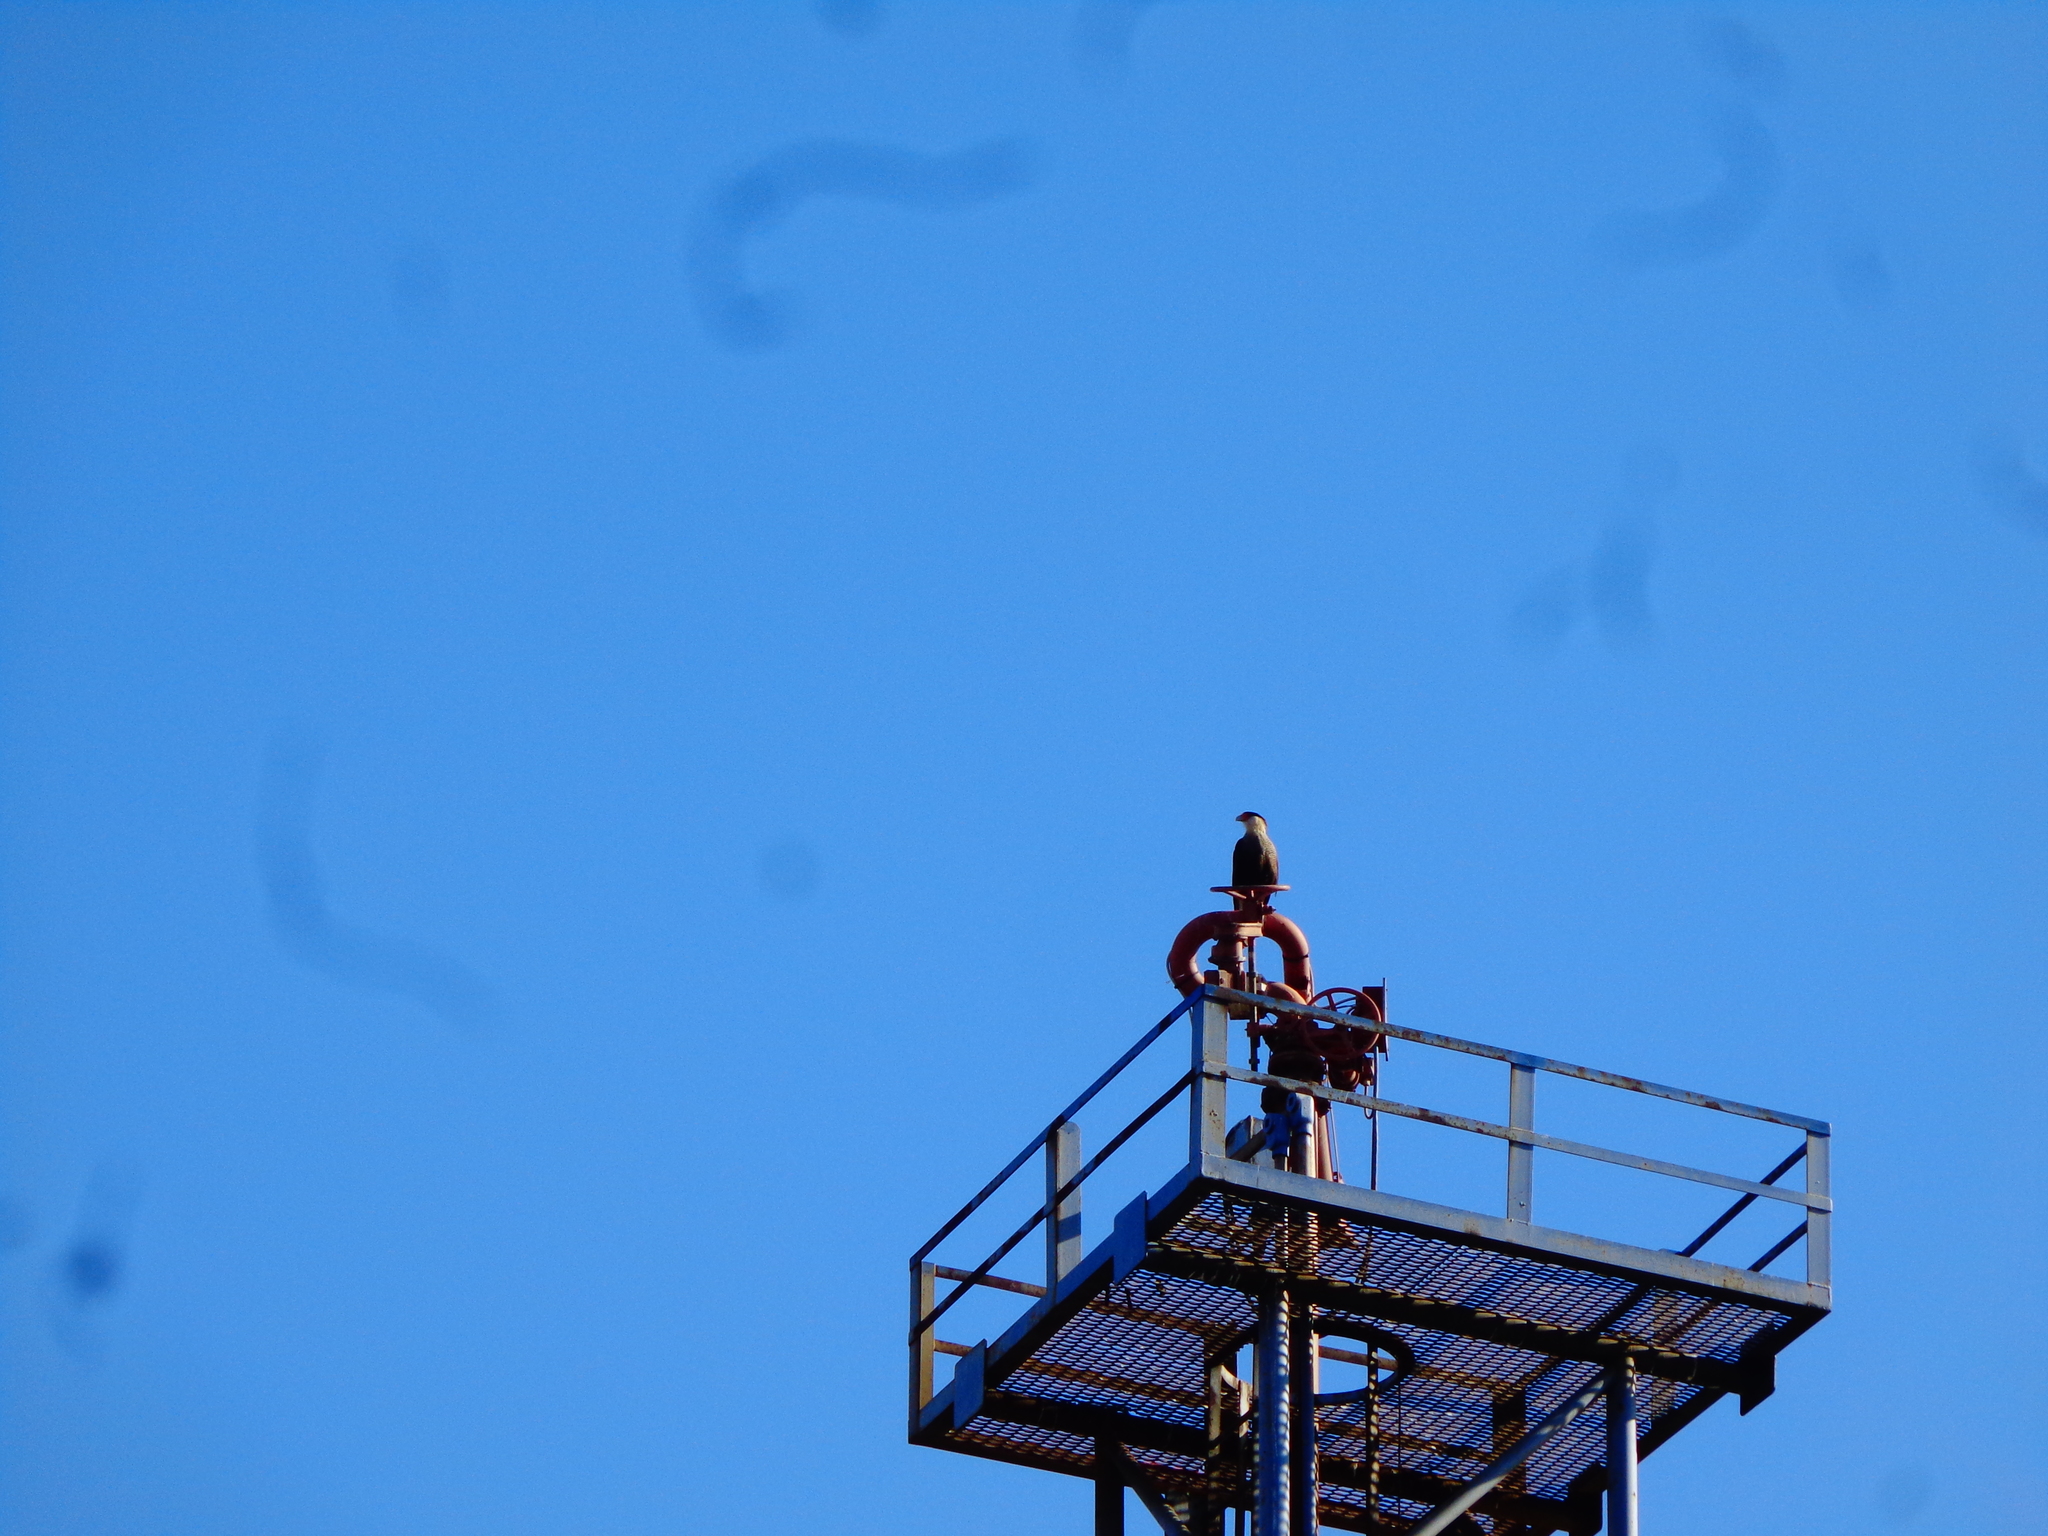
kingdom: Animalia
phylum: Chordata
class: Aves
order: Falconiformes
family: Falconidae
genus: Caracara
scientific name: Caracara plancus
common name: Southern caracara
